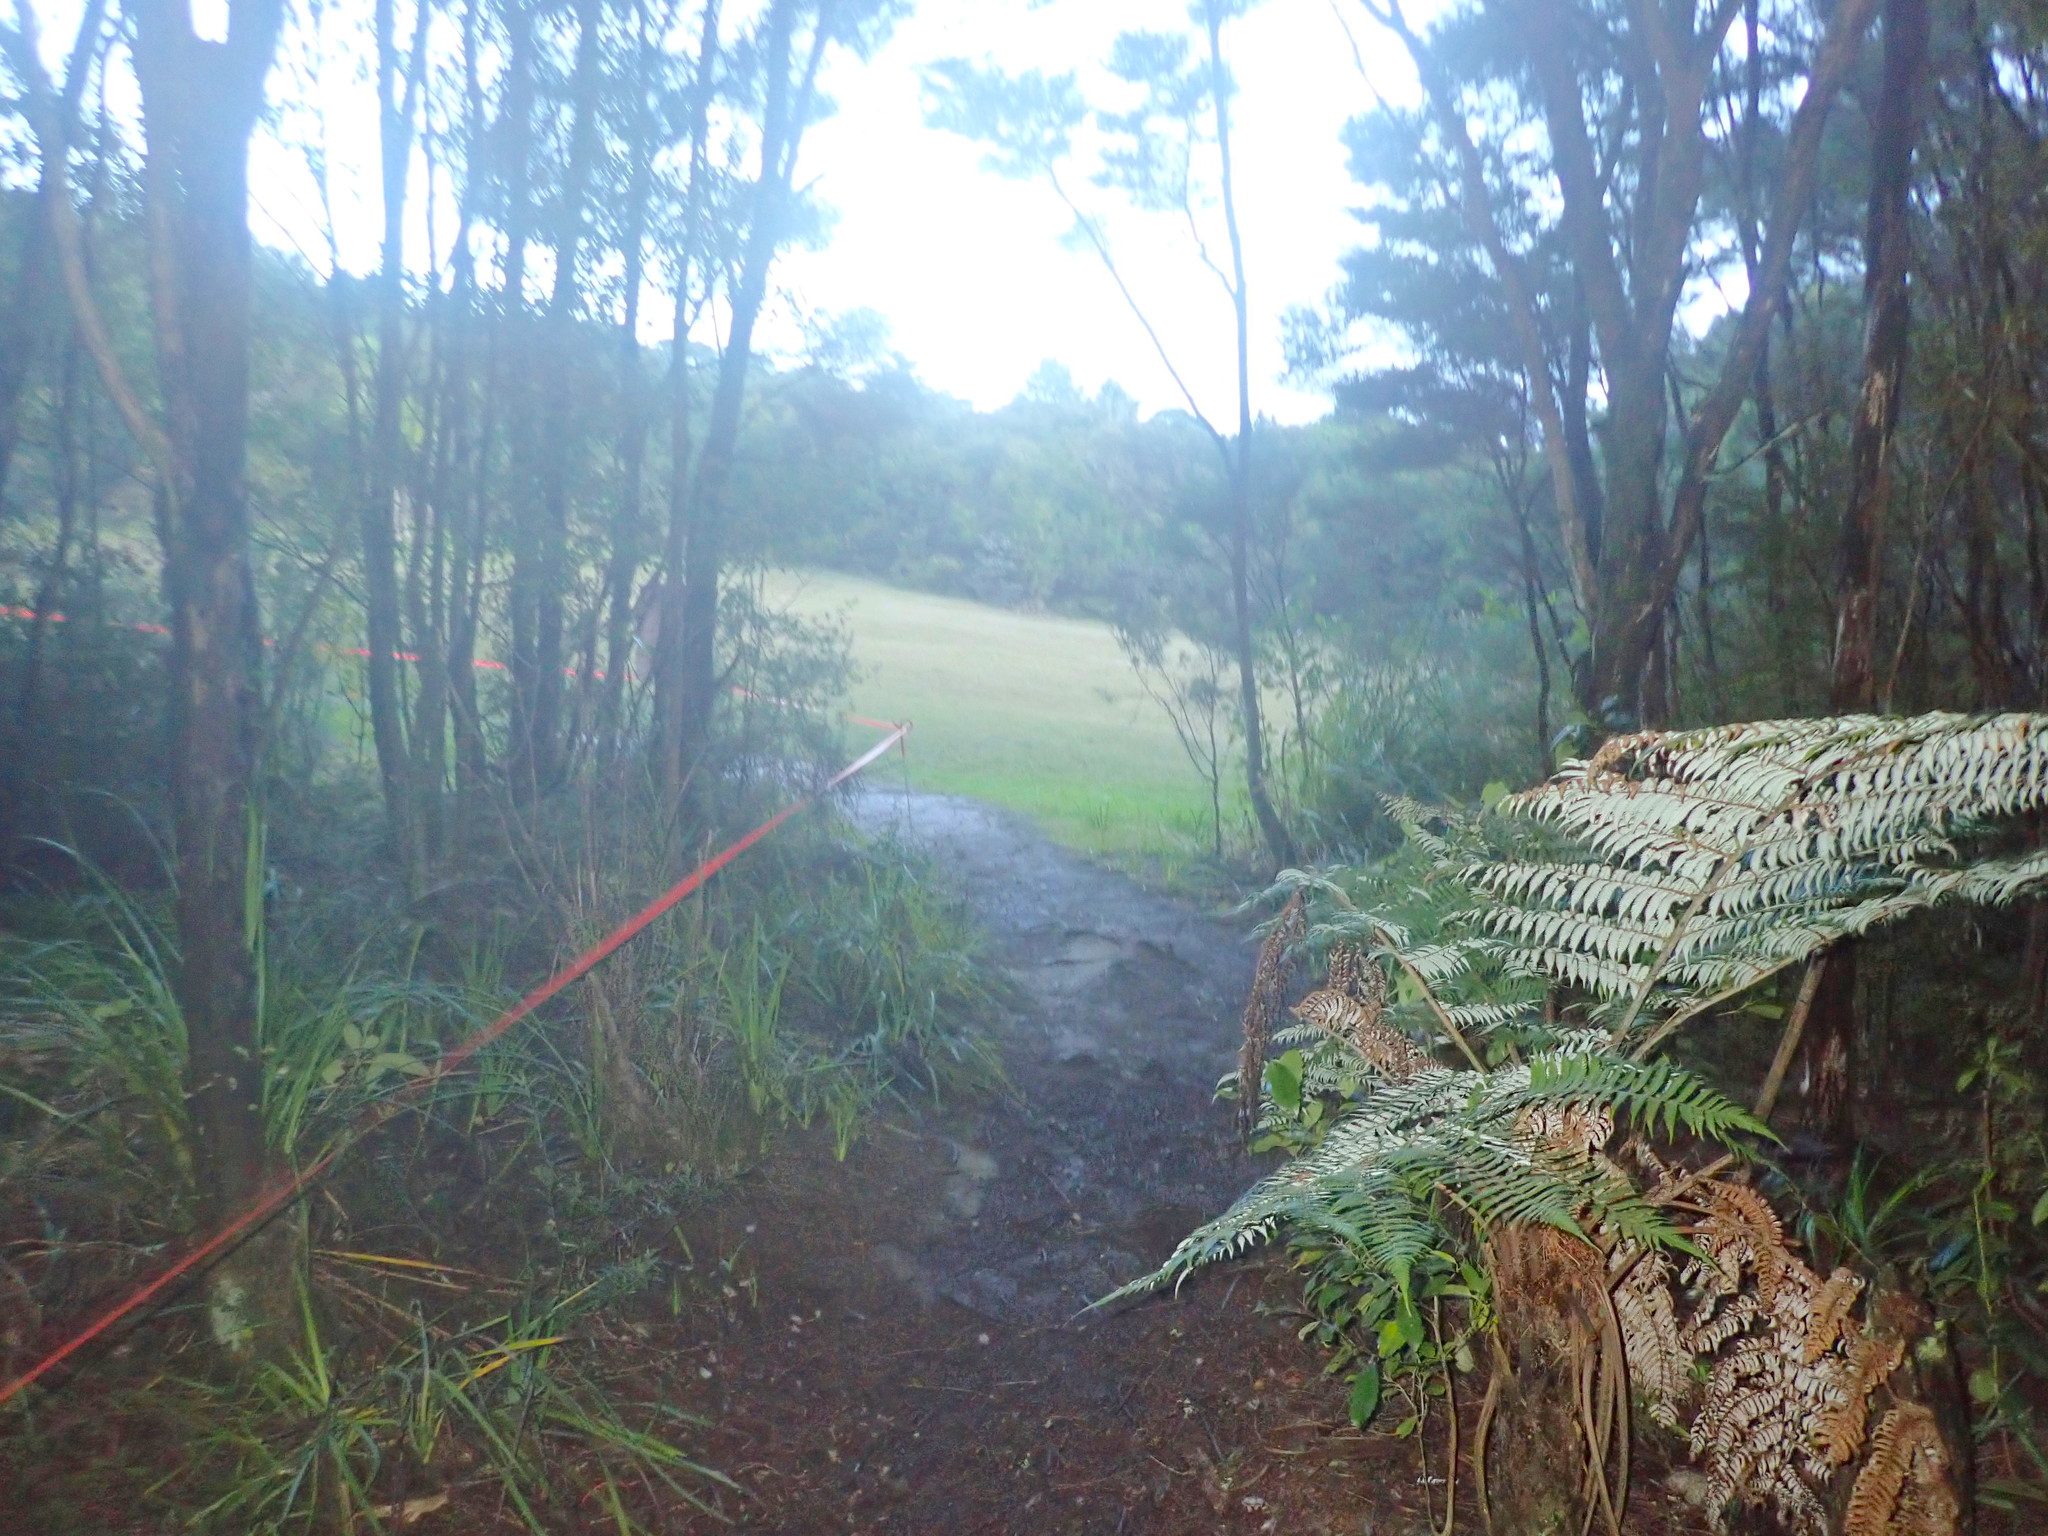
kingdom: Plantae
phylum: Tracheophyta
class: Polypodiopsida
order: Cyatheales
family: Cyatheaceae
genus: Alsophila
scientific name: Alsophila dealbata
